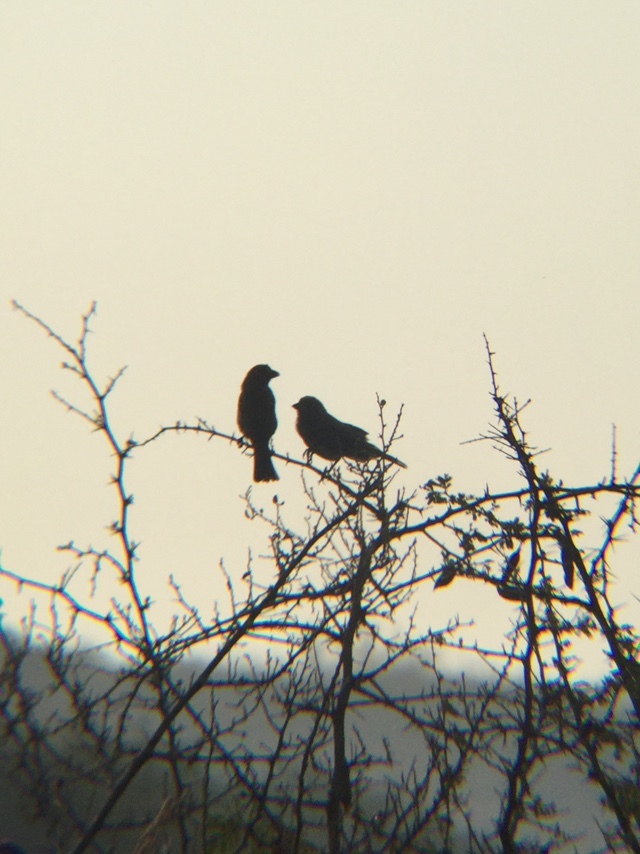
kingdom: Animalia
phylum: Chordata
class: Aves
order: Passeriformes
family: Fringillidae
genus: Haemorhous
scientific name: Haemorhous mexicanus
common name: House finch
